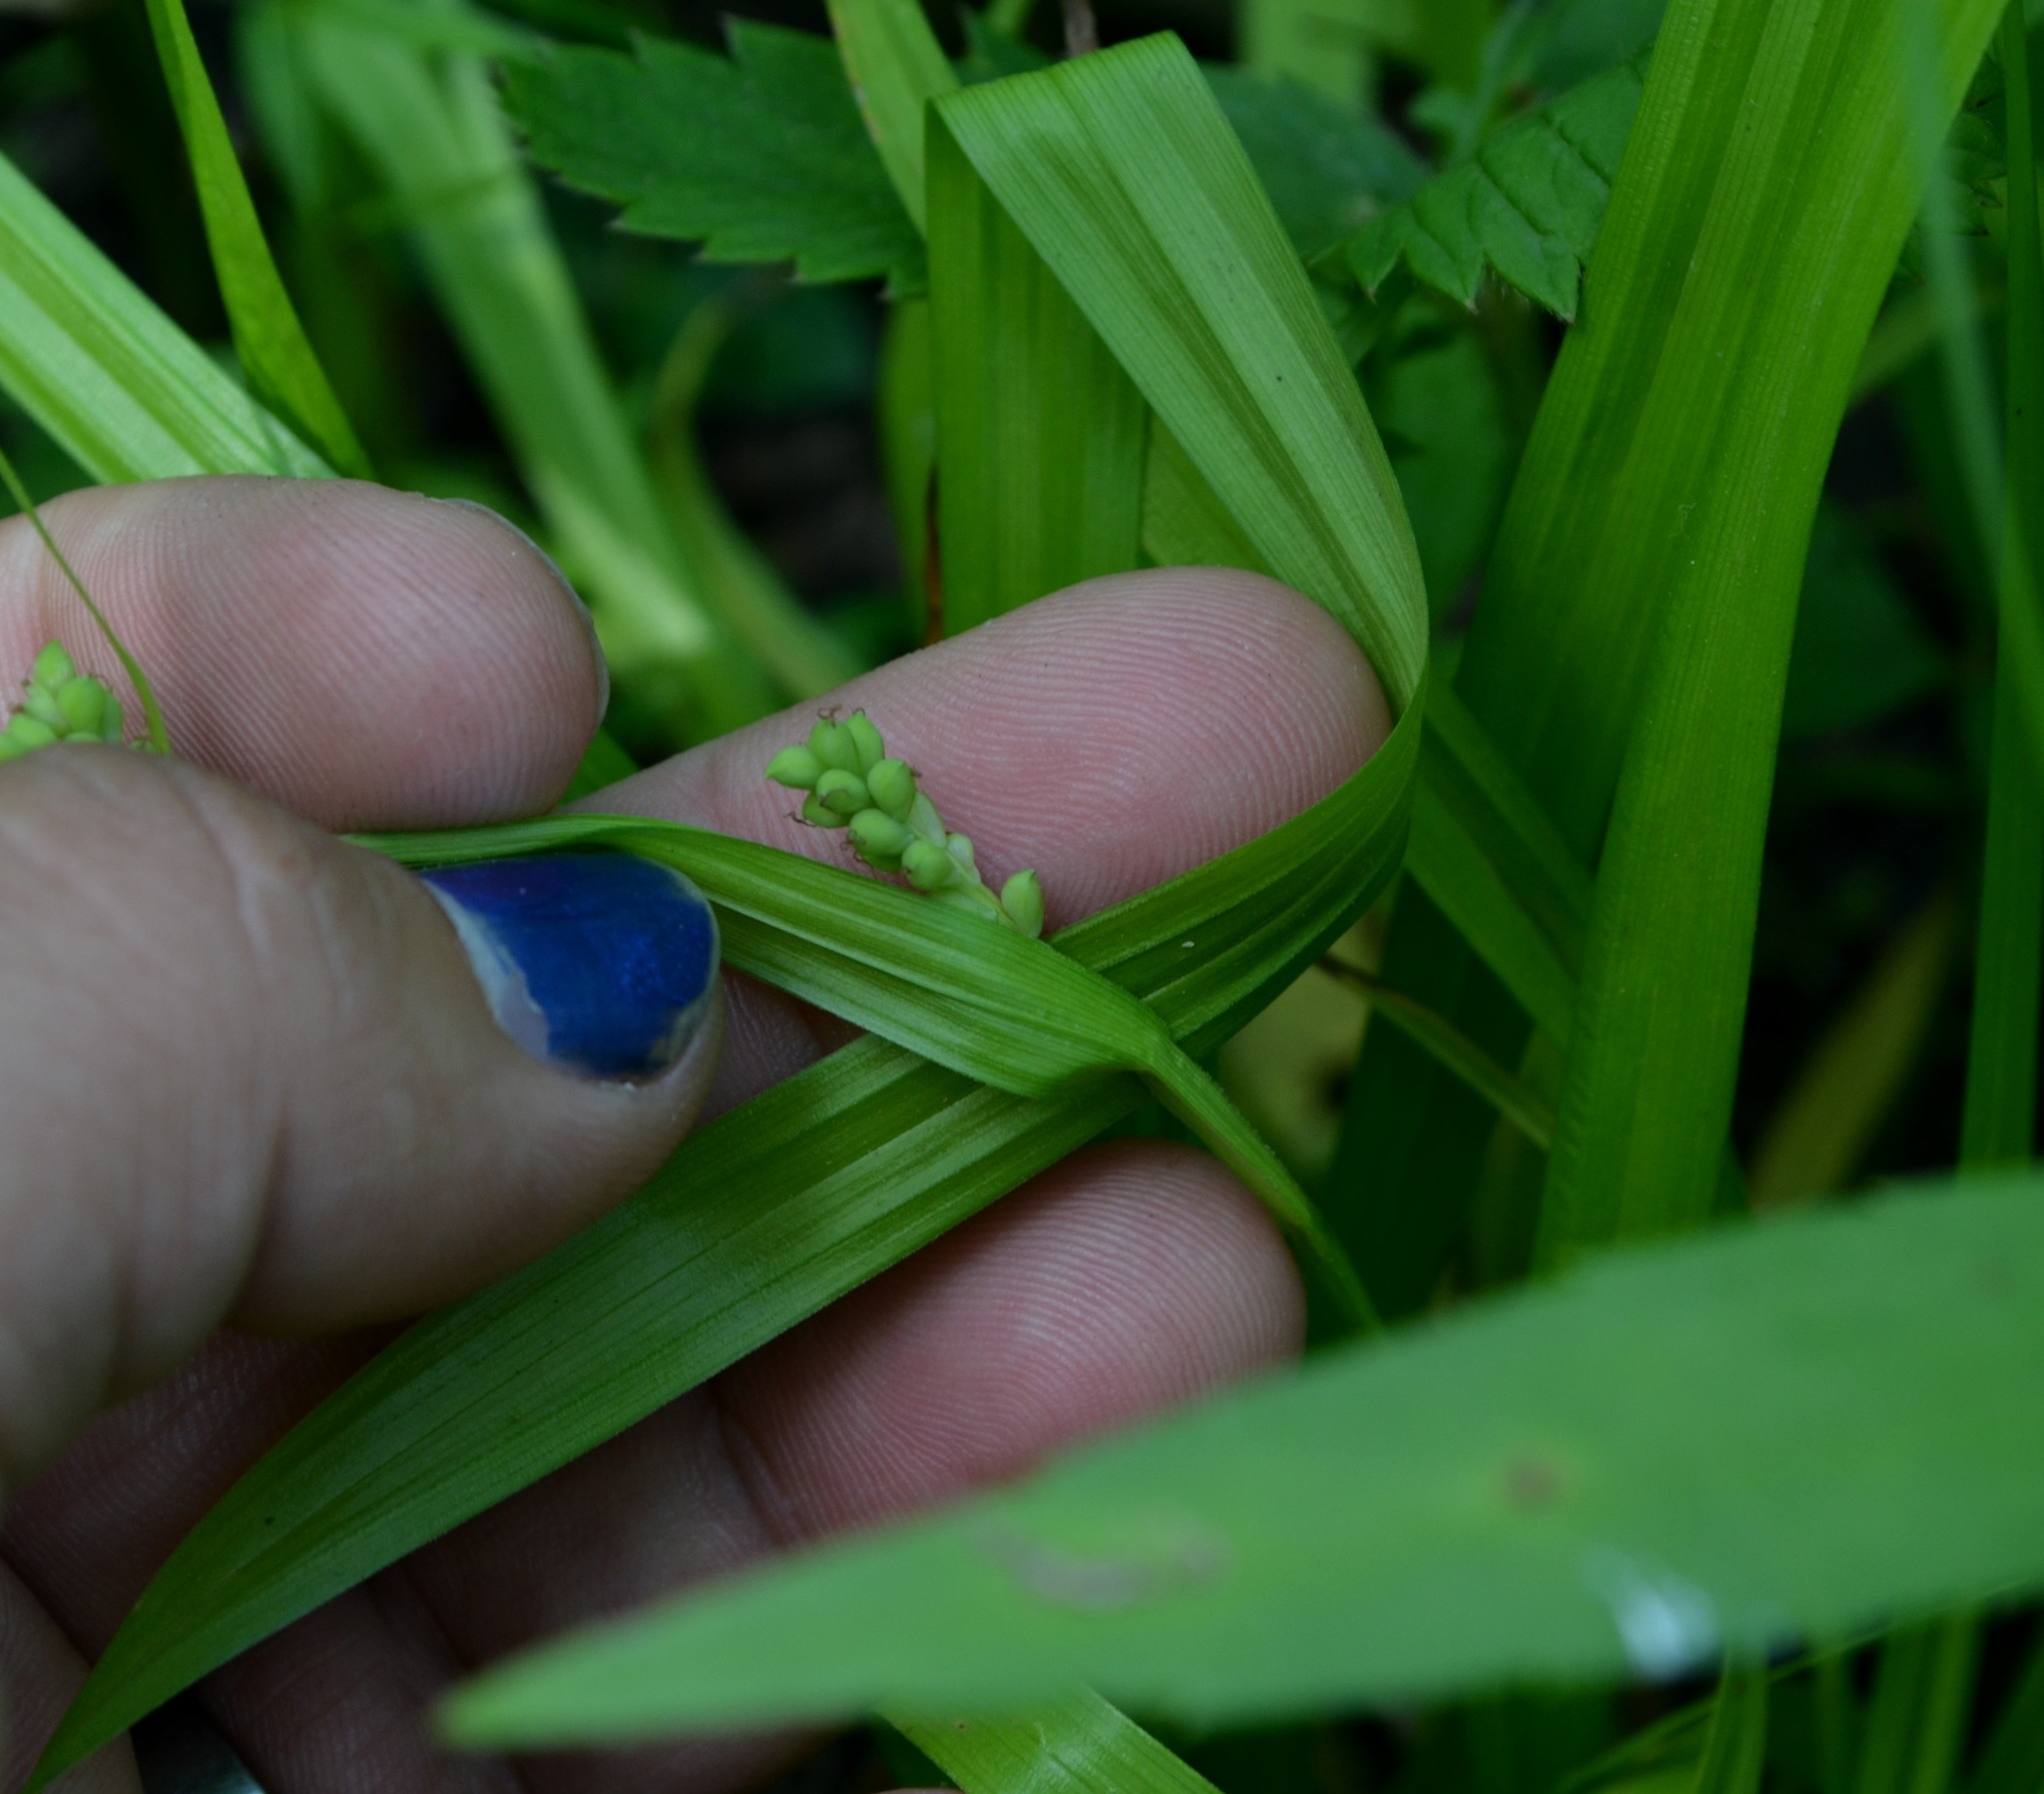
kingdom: Plantae
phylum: Tracheophyta
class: Liliopsida
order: Poales
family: Cyperaceae
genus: Carex
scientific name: Carex blanda
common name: Bland sedge
